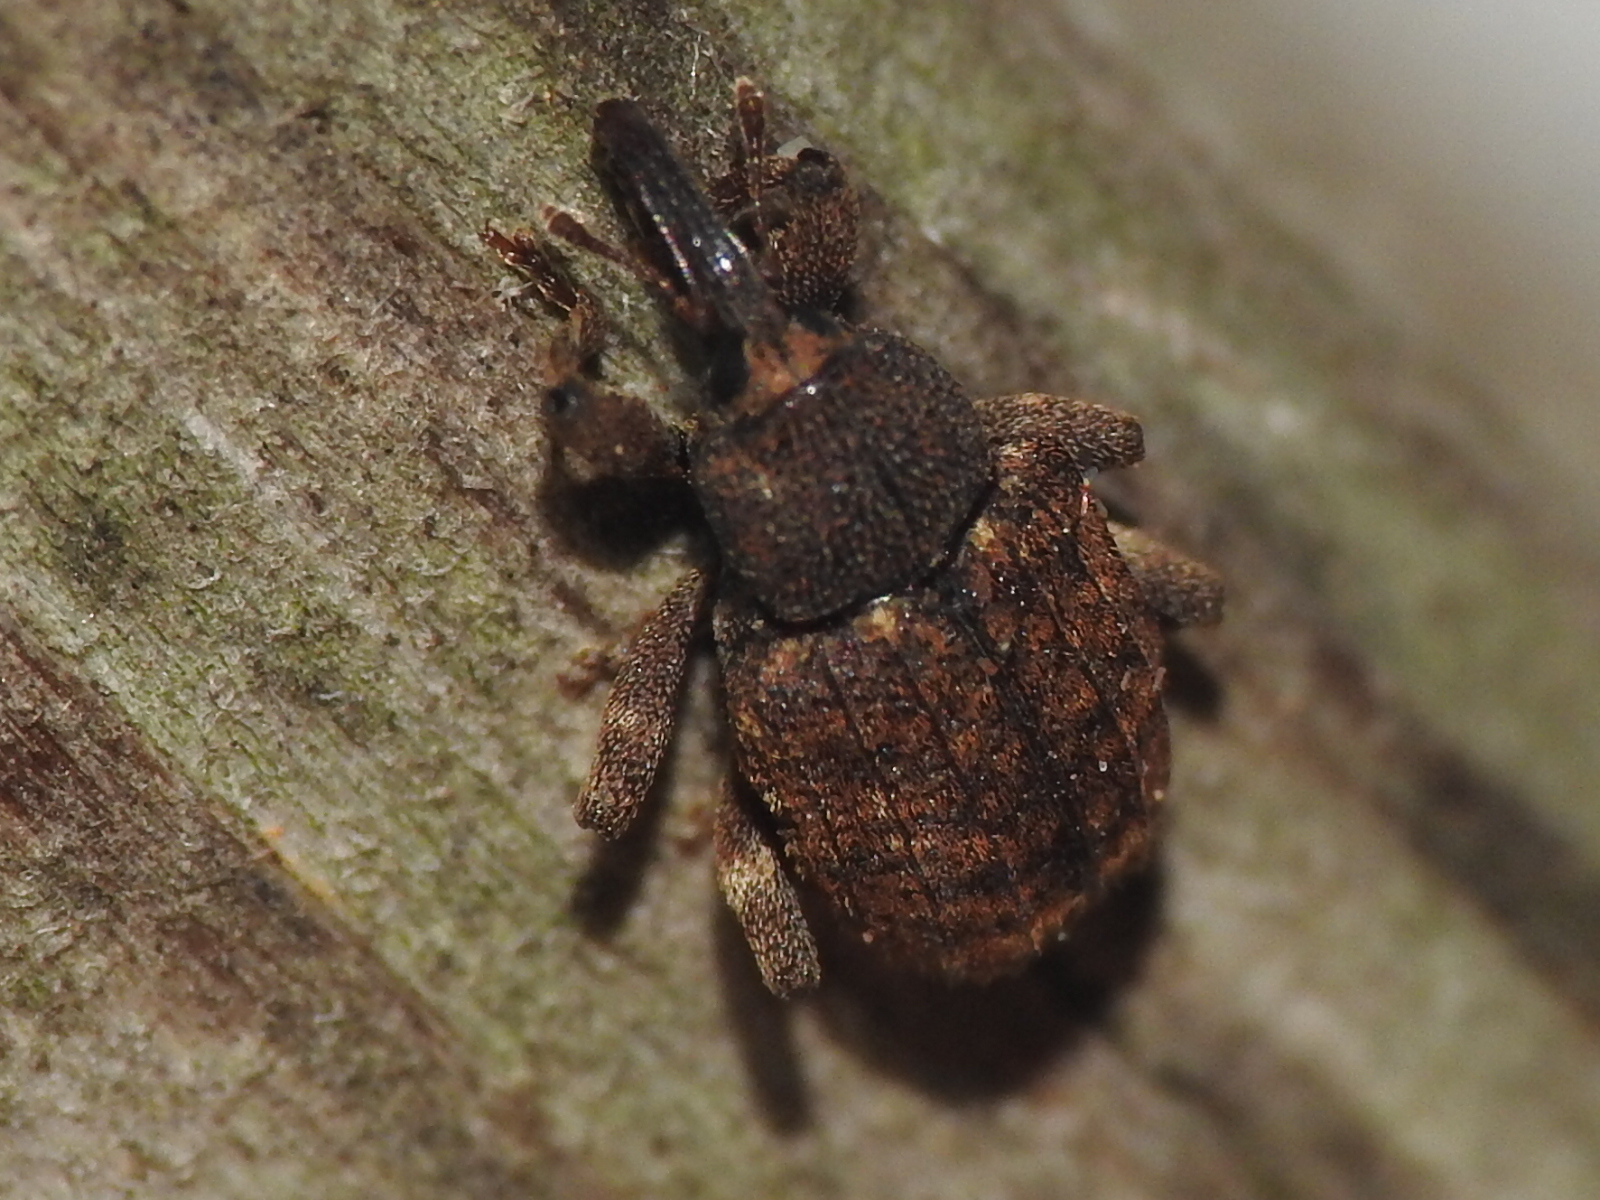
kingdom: Animalia
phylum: Arthropoda
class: Insecta
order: Coleoptera
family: Curculionidae
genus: Conotrachelus
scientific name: Conotrachelus posticatus
